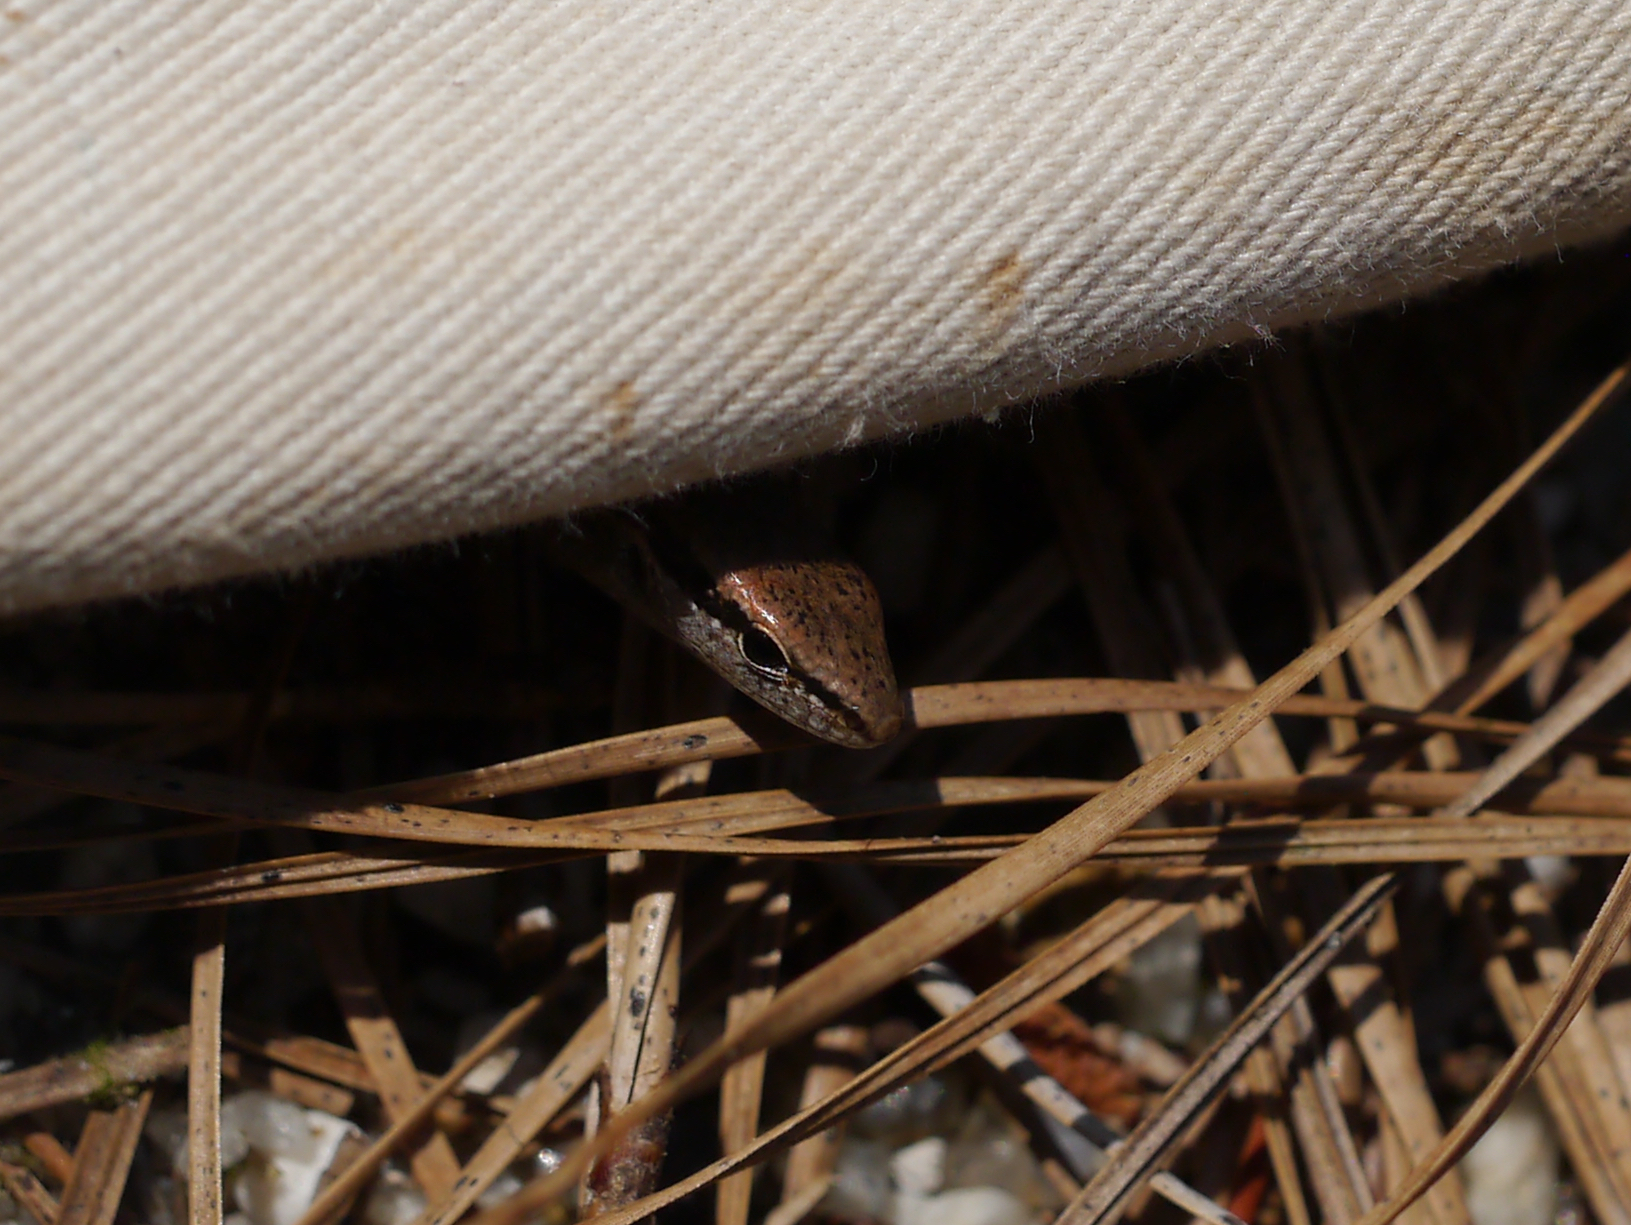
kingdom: Animalia
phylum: Chordata
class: Squamata
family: Scincidae
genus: Scincella
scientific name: Scincella lateralis
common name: Ground skink
